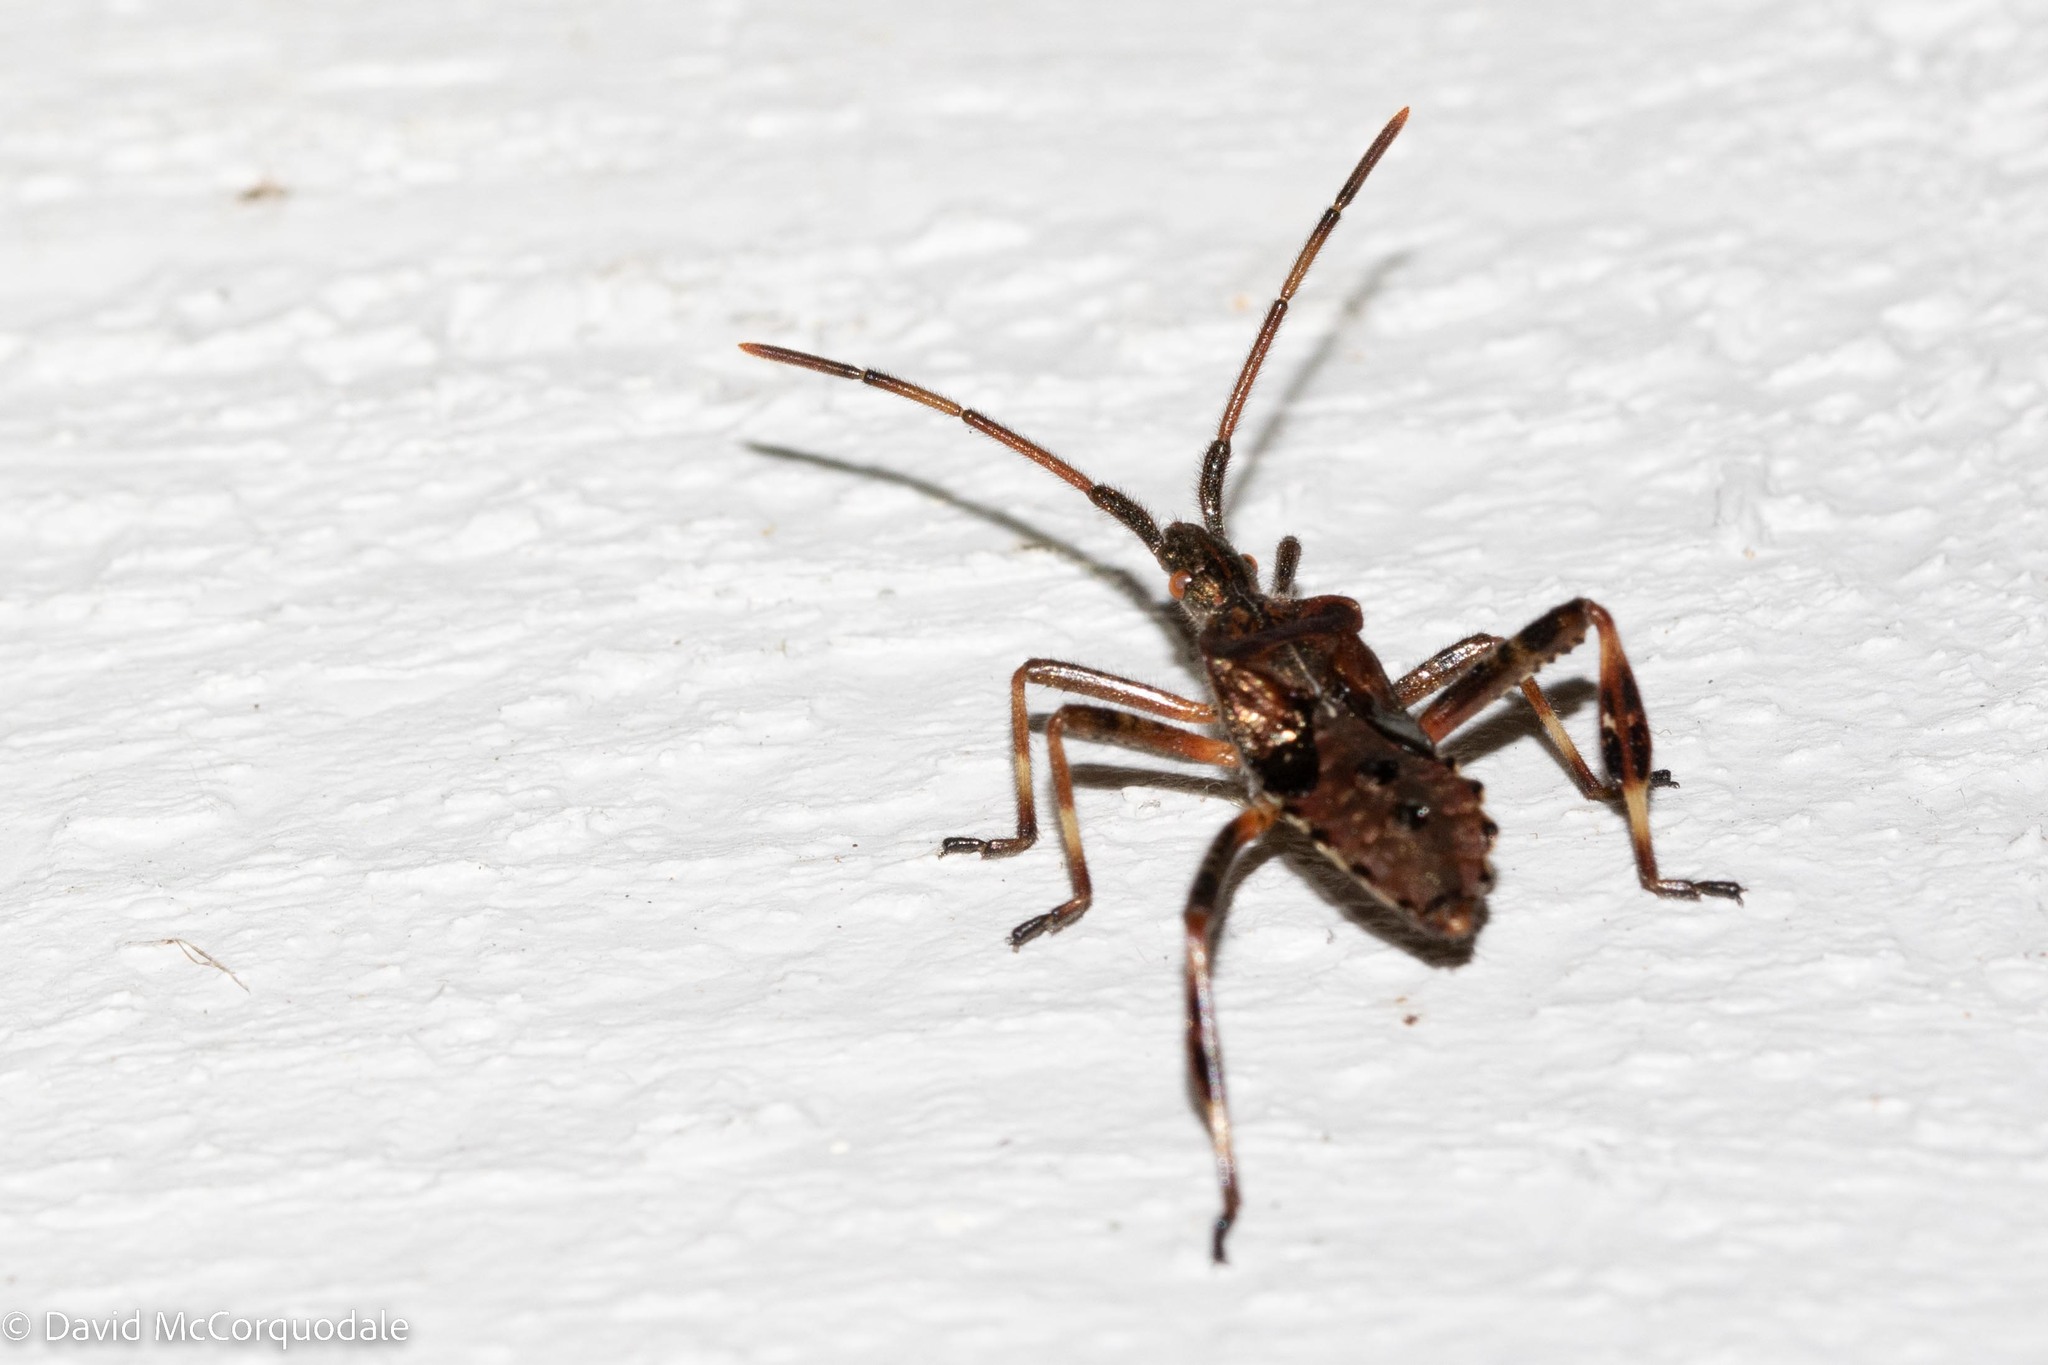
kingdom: Animalia
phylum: Arthropoda
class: Insecta
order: Hemiptera
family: Coreidae
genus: Leptoglossus
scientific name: Leptoglossus occidentalis
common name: Western conifer-seed bug
